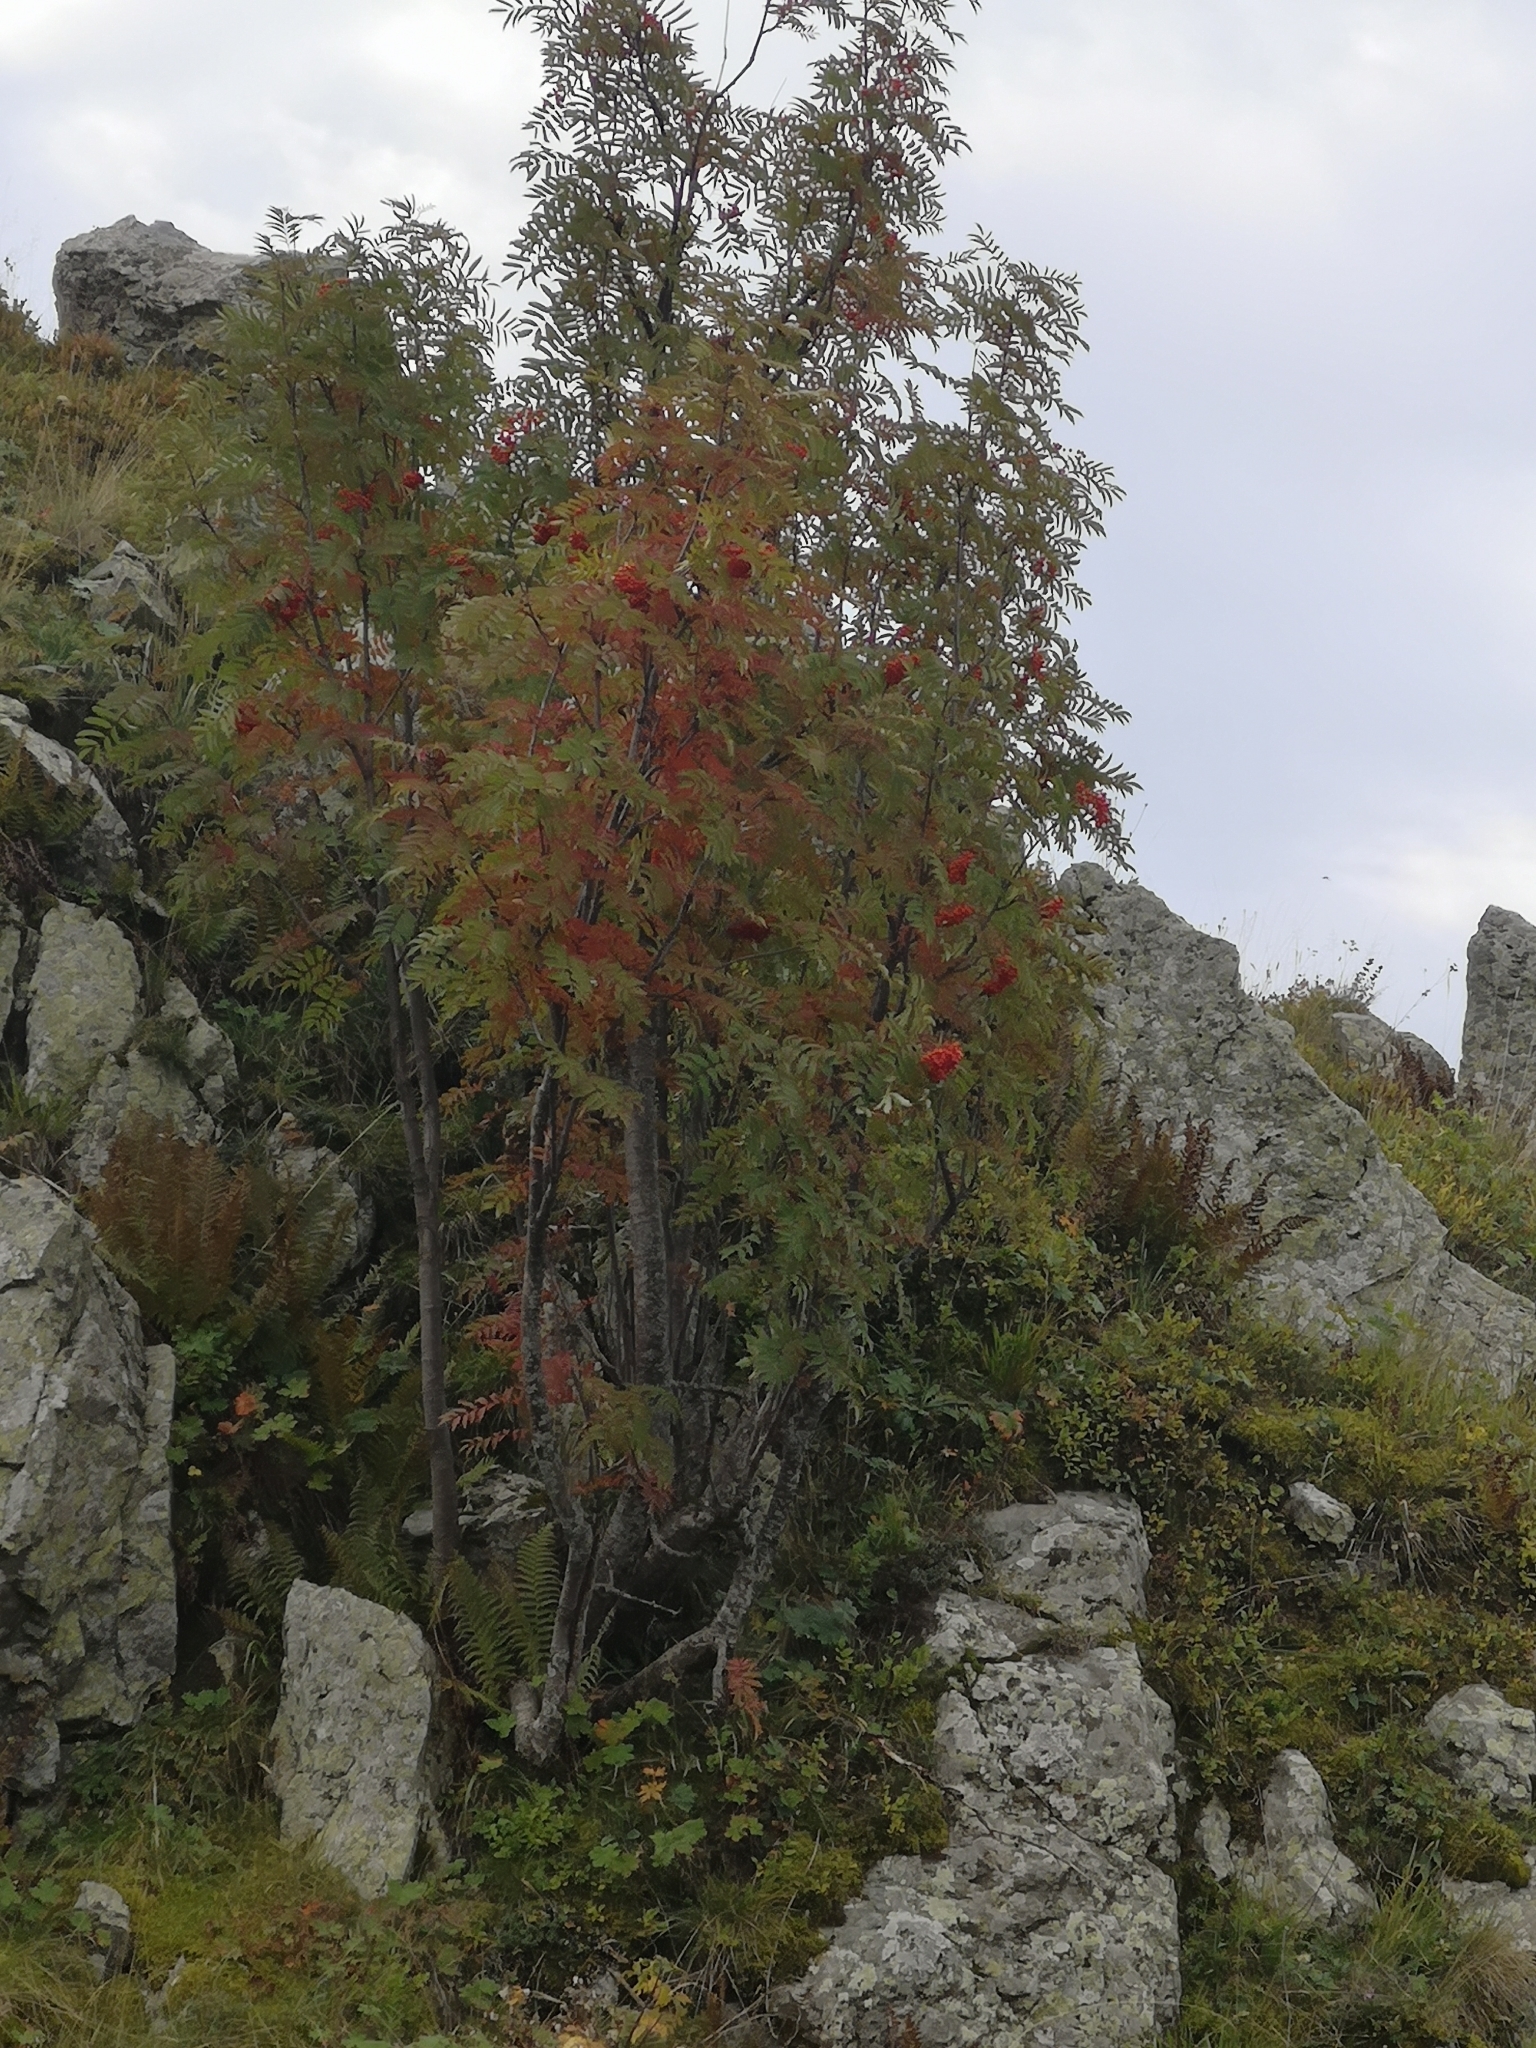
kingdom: Plantae
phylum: Tracheophyta
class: Magnoliopsida
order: Rosales
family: Rosaceae
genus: Sorbus
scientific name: Sorbus aucuparia
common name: Rowan
